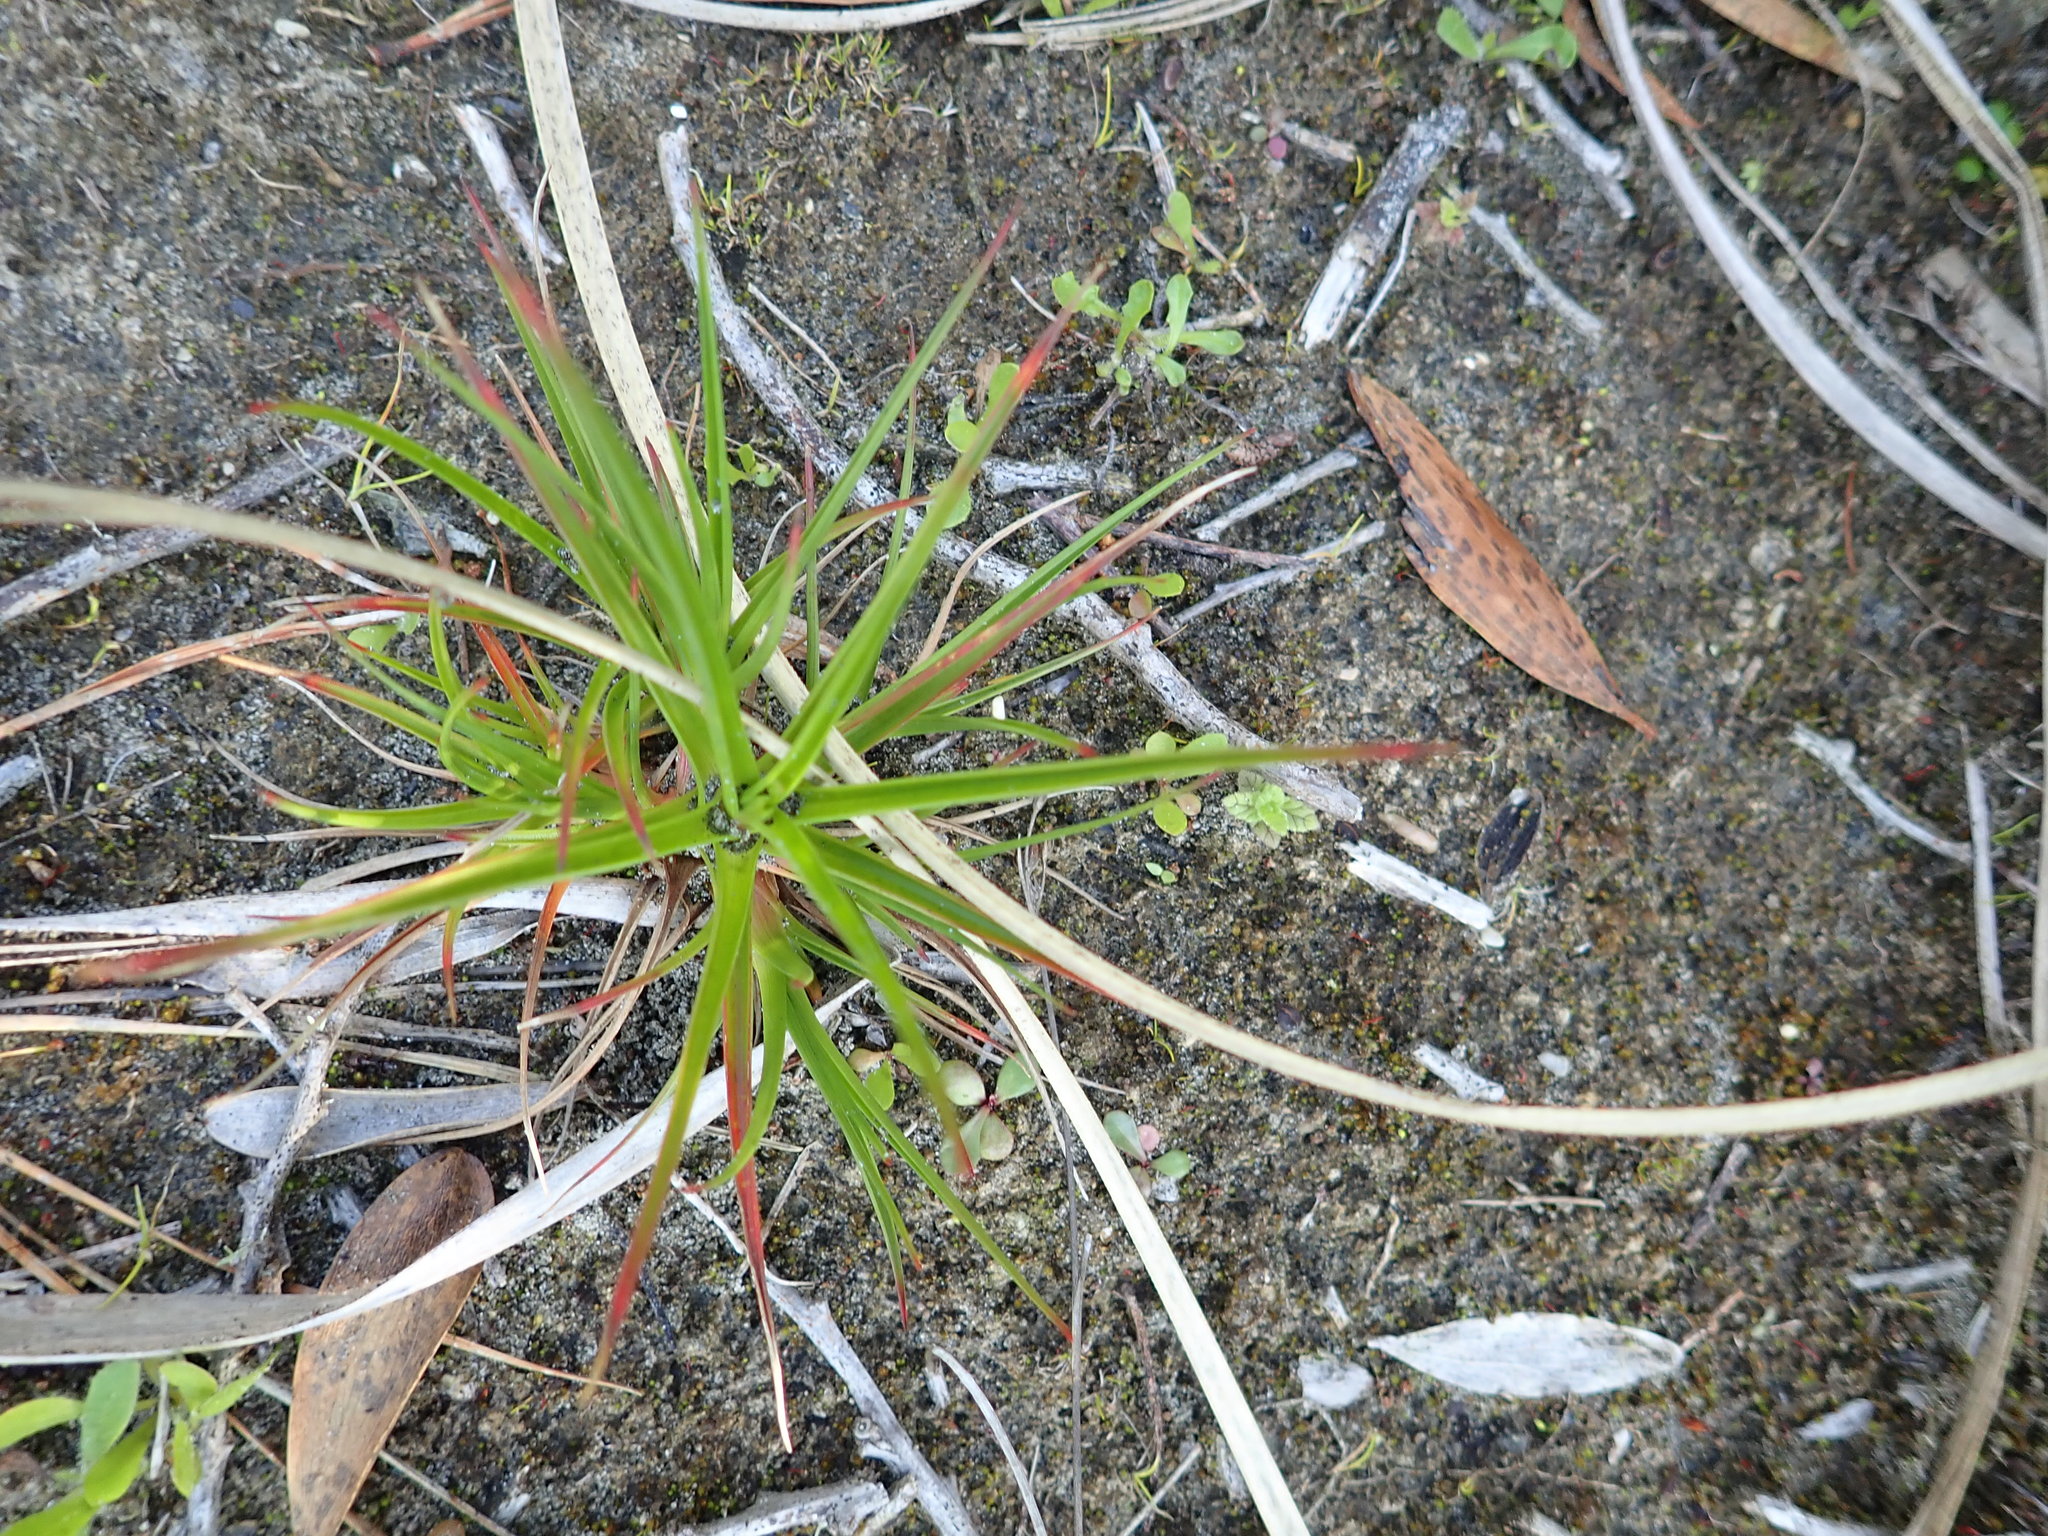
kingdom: Plantae
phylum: Tracheophyta
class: Liliopsida
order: Poales
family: Juncaceae
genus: Juncus
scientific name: Juncus caespiticius
